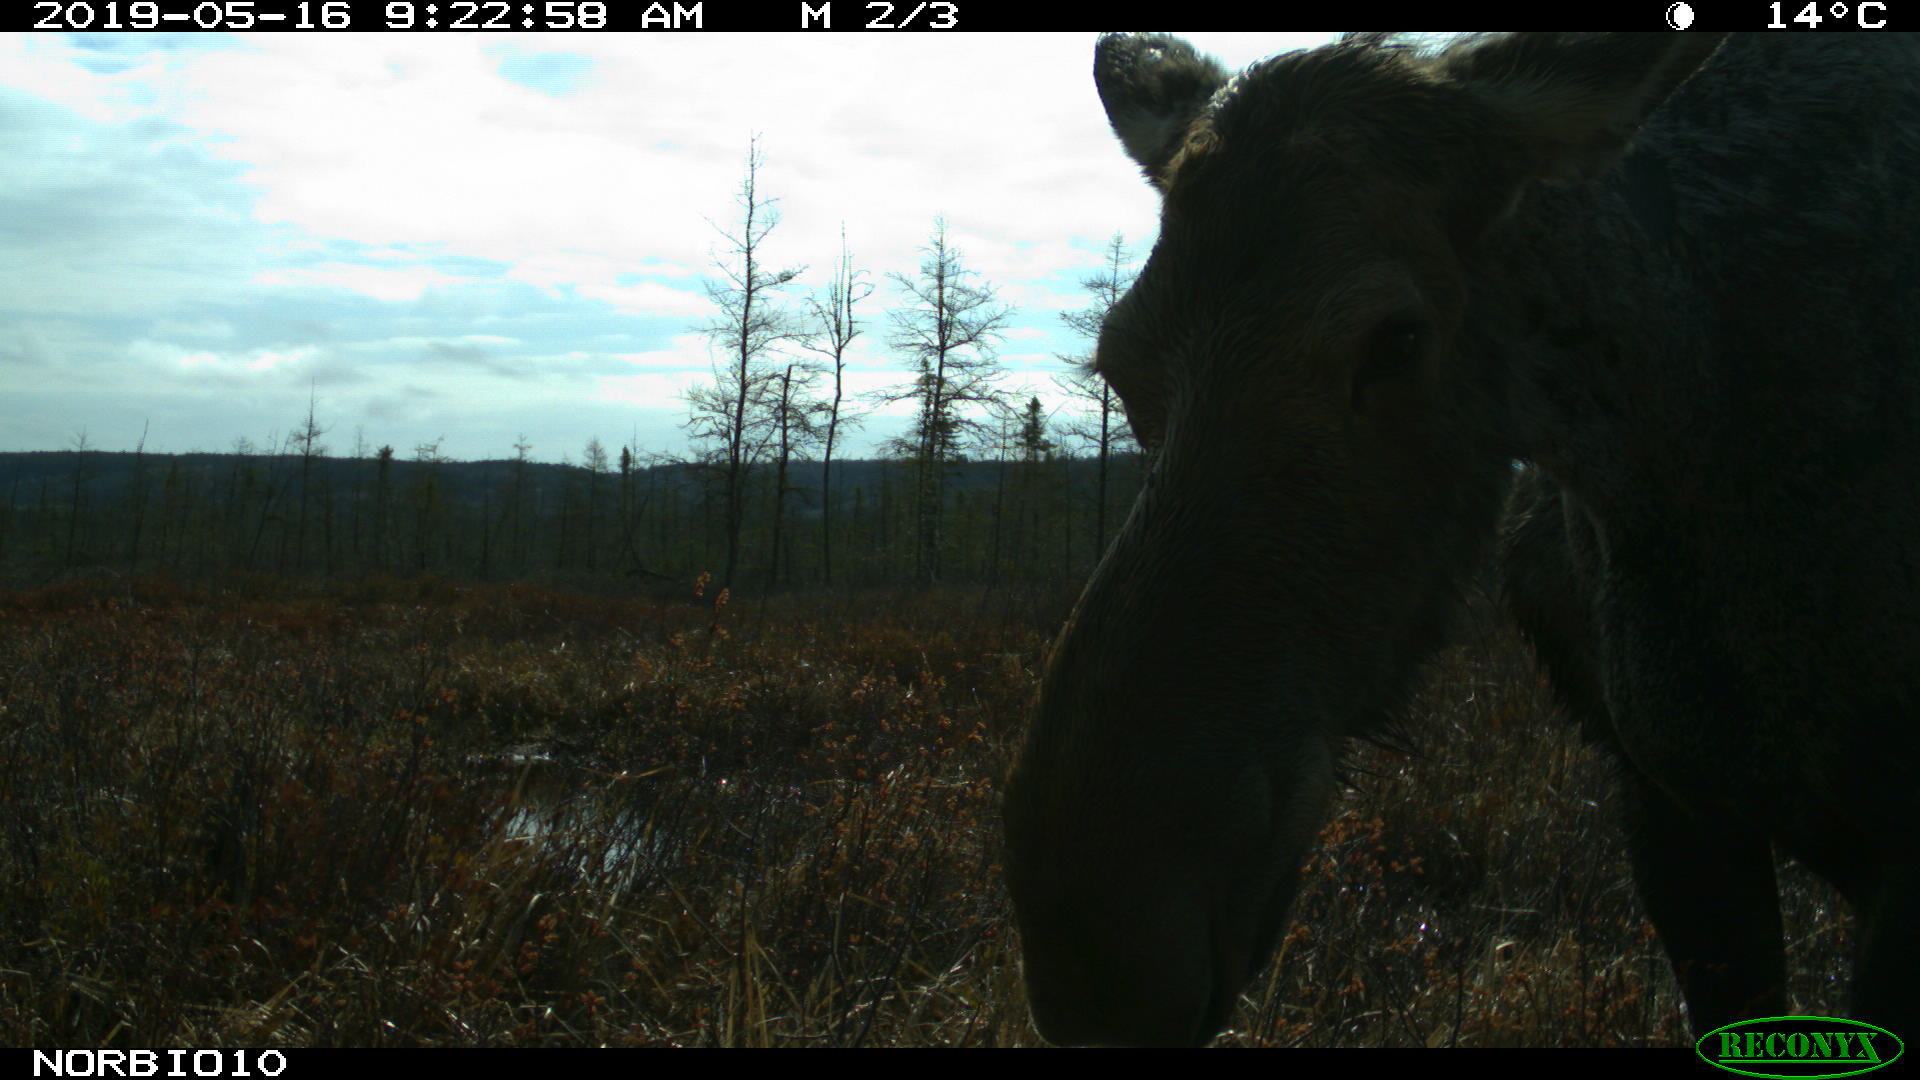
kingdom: Animalia
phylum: Chordata
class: Mammalia
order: Artiodactyla
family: Cervidae
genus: Alces
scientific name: Alces alces
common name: Moose
